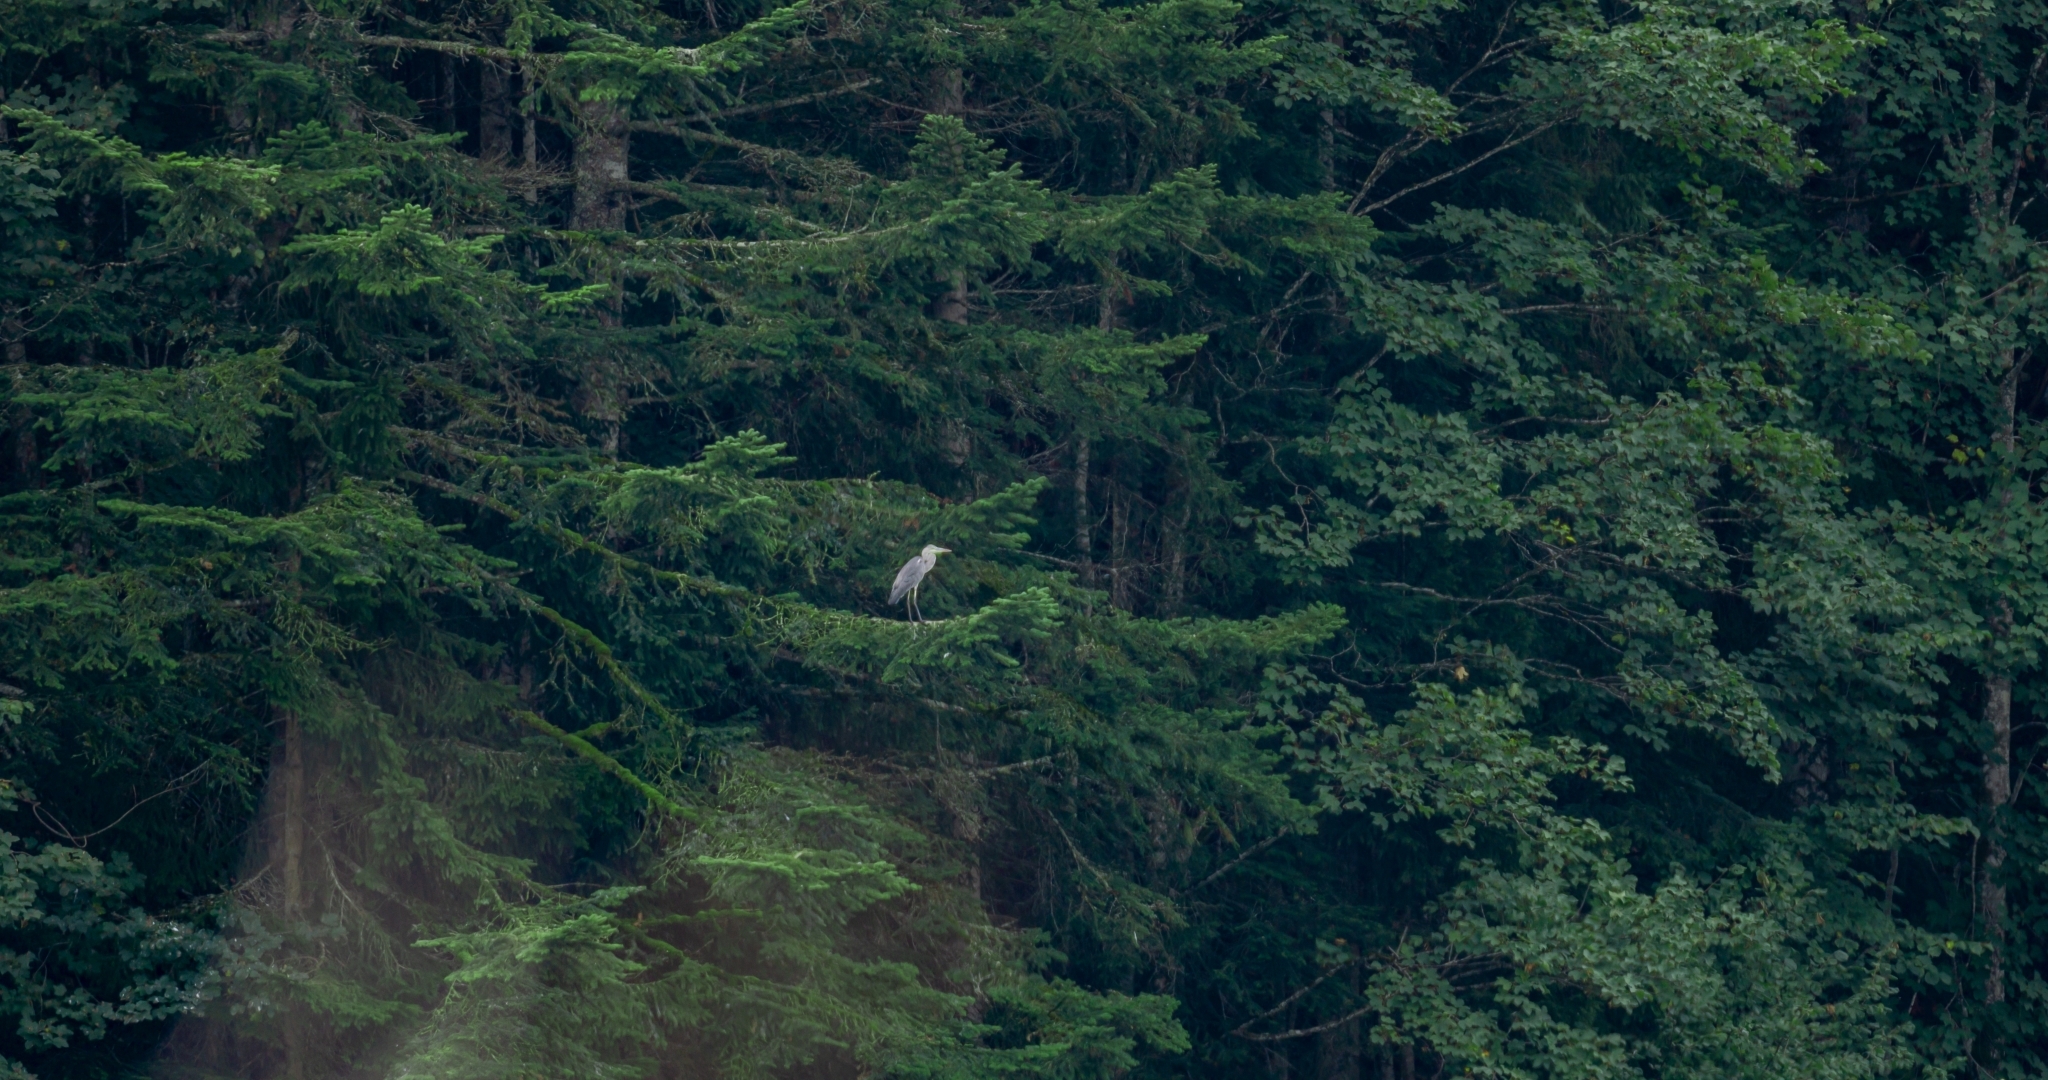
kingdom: Animalia
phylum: Chordata
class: Aves
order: Pelecaniformes
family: Ardeidae
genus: Ardea
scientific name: Ardea cinerea
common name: Grey heron
